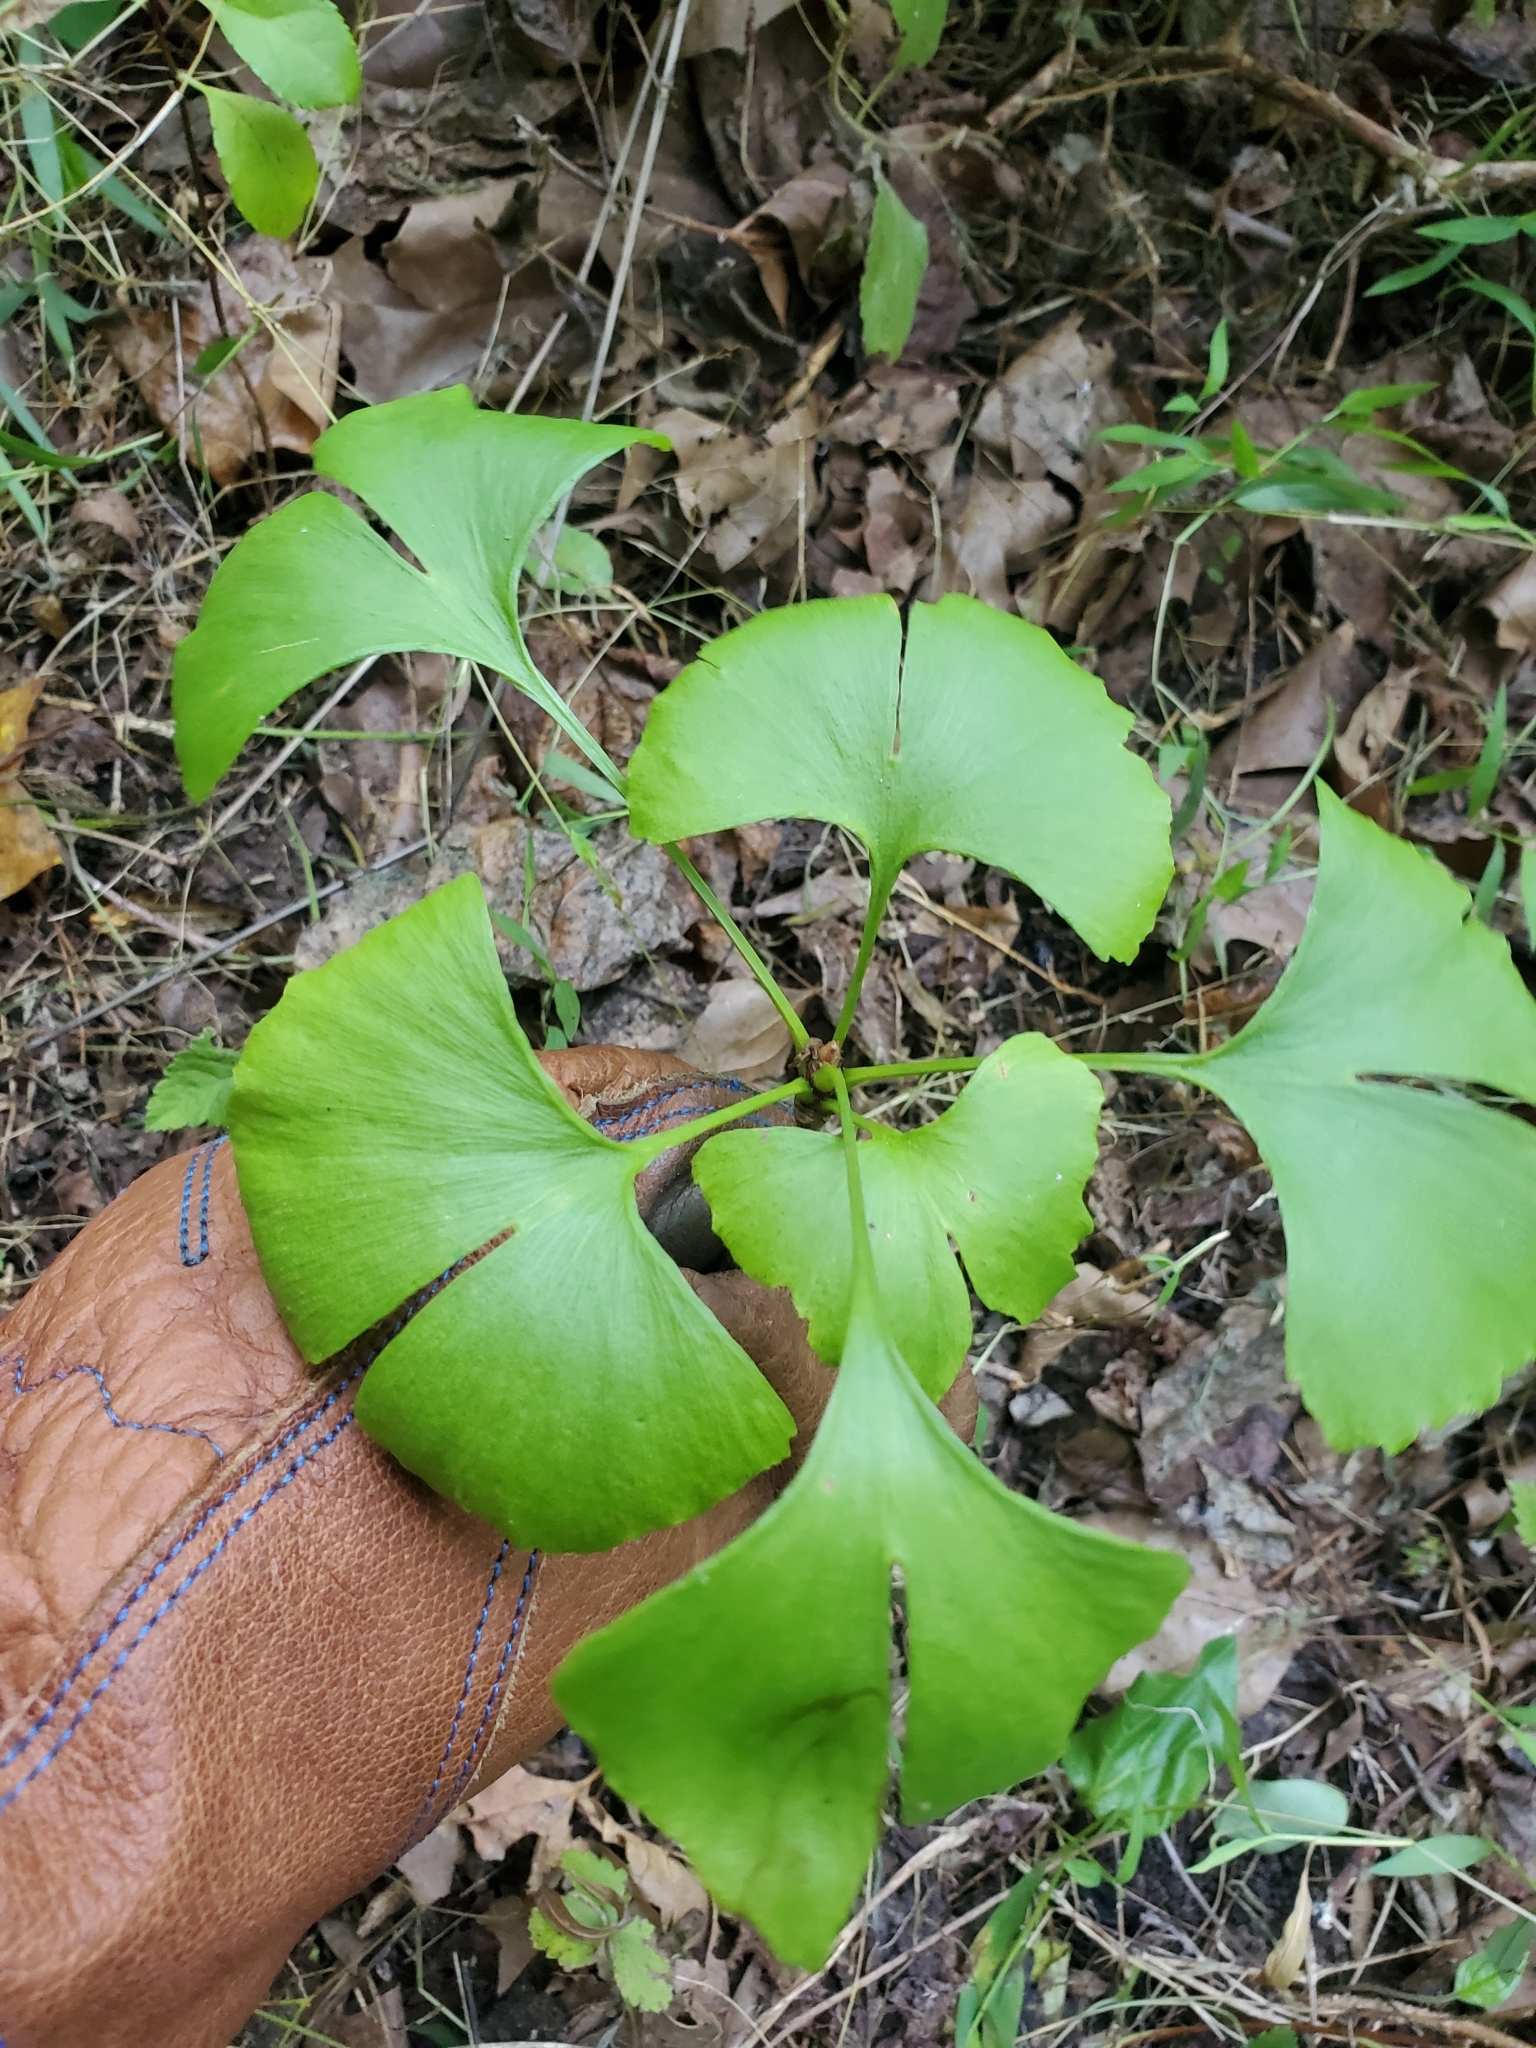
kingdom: Plantae
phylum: Tracheophyta
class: Ginkgoopsida
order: Ginkgoales
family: Ginkgoaceae
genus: Ginkgo
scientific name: Ginkgo biloba
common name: Ginkgo
